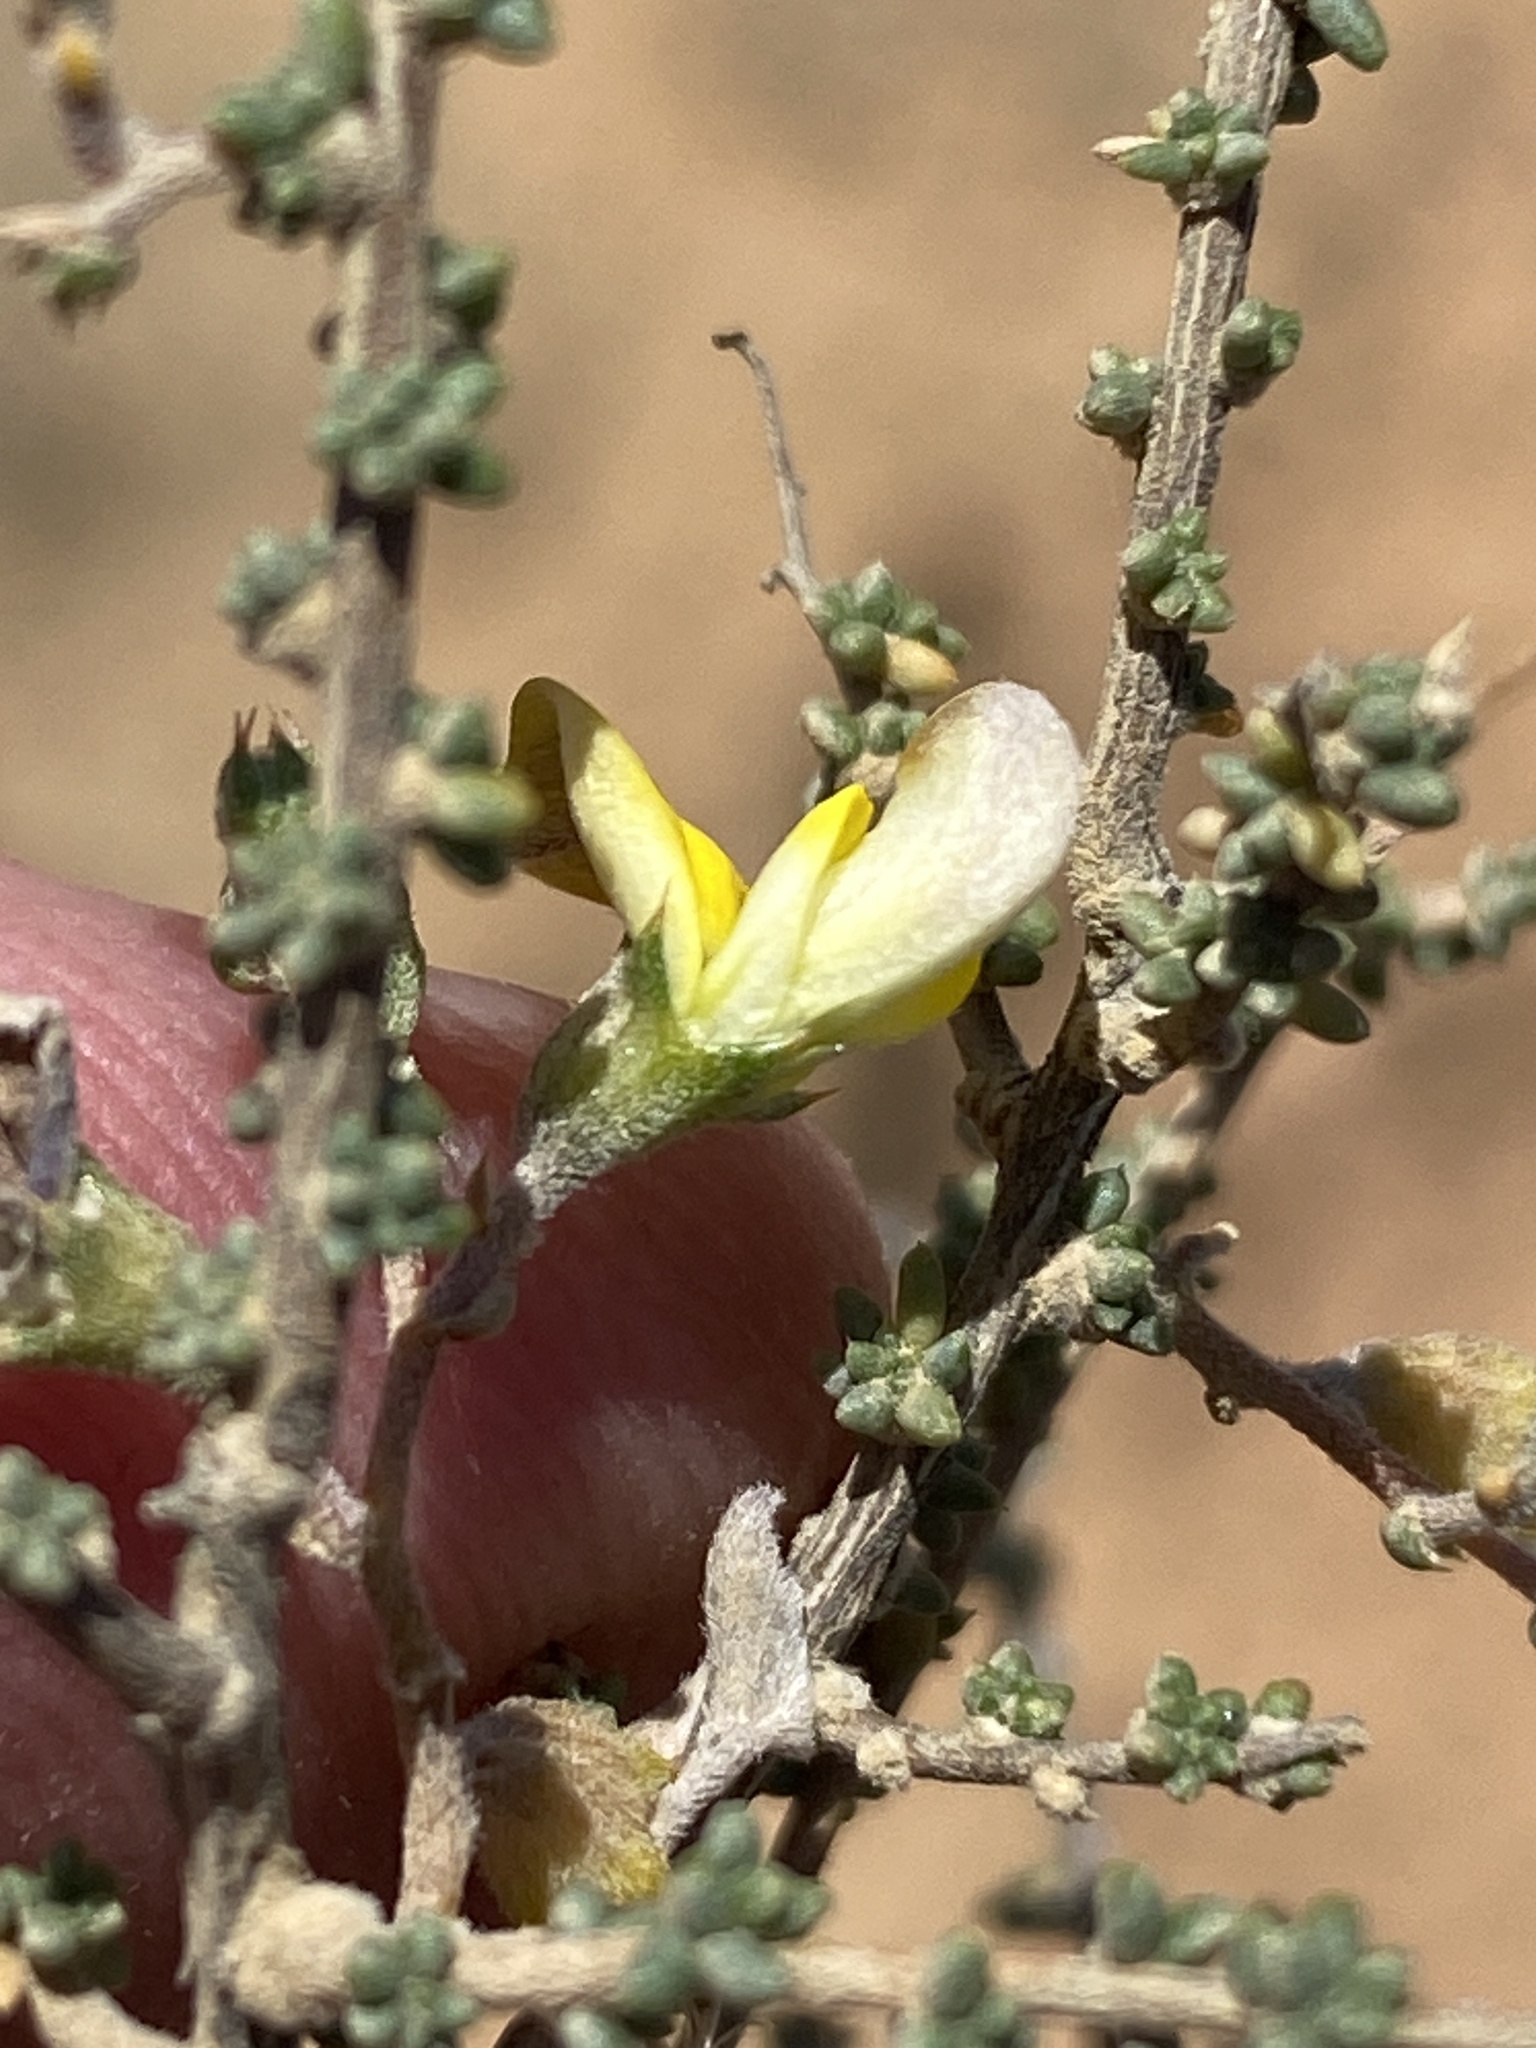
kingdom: Plantae
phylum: Tracheophyta
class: Magnoliopsida
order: Fabales
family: Fabaceae
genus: Aspalathus
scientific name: Aspalathus pulicifolia
